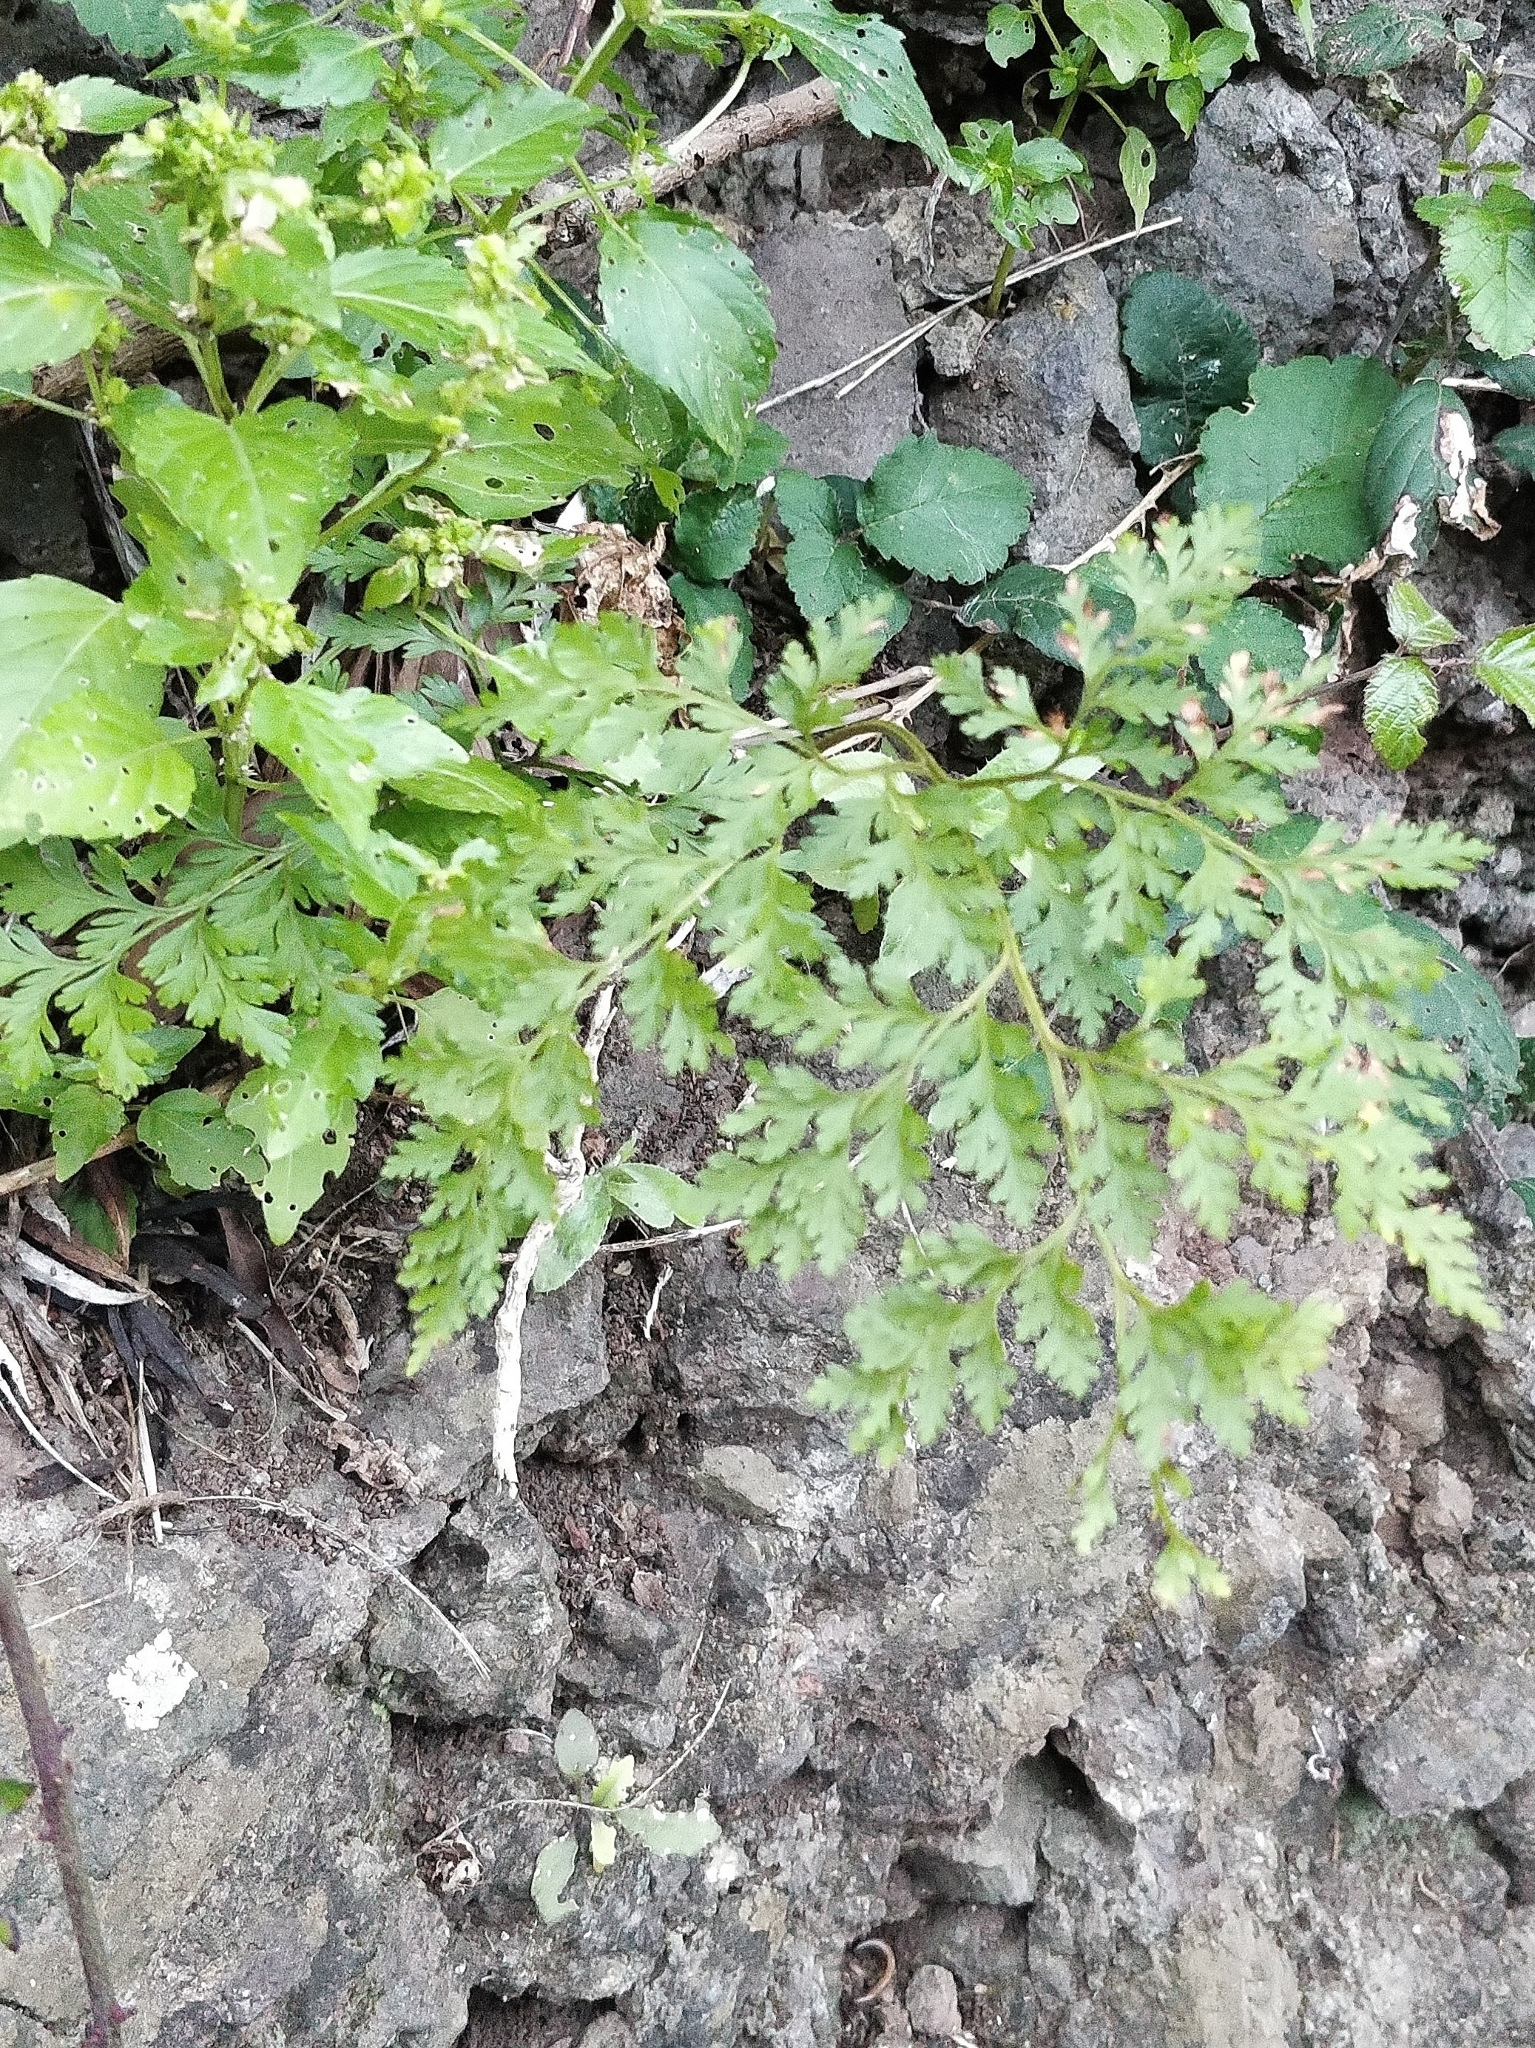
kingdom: Plantae
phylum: Tracheophyta
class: Polypodiopsida
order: Polypodiales
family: Davalliaceae
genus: Davallia
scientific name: Davallia canariensis
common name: Hare's-foot fern
